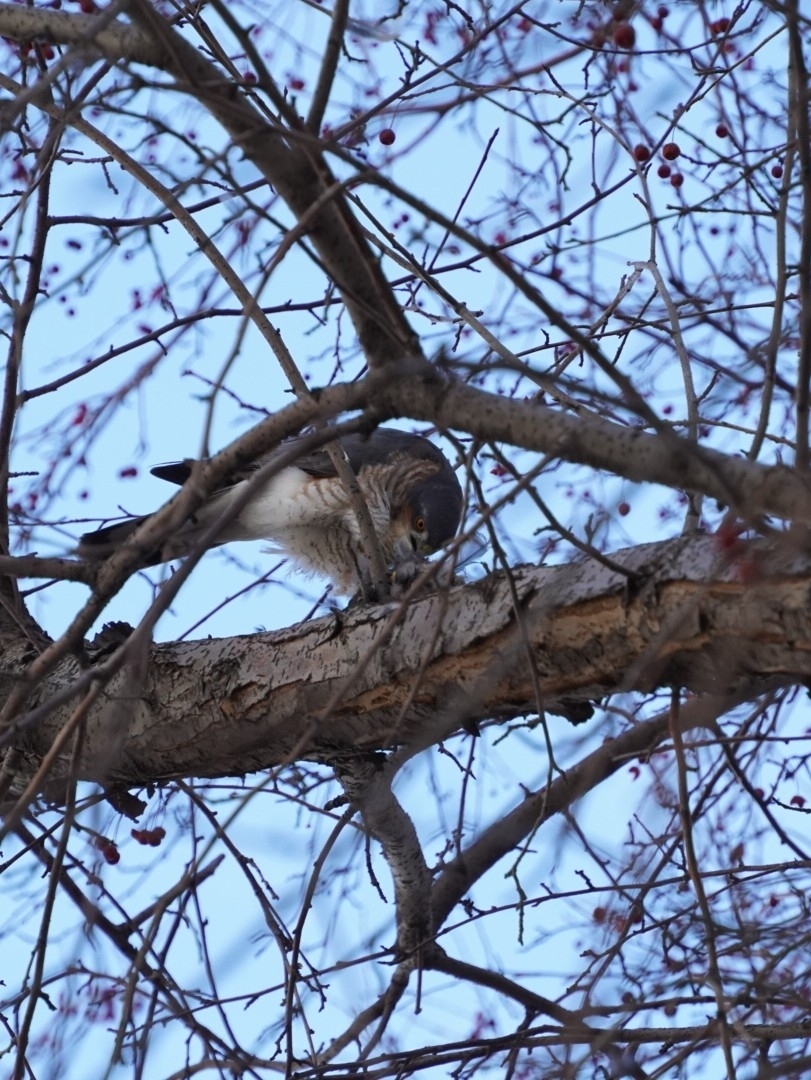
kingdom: Animalia
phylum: Chordata
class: Aves
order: Accipitriformes
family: Accipitridae
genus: Accipiter
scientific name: Accipiter nisus
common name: Eurasian sparrowhawk
